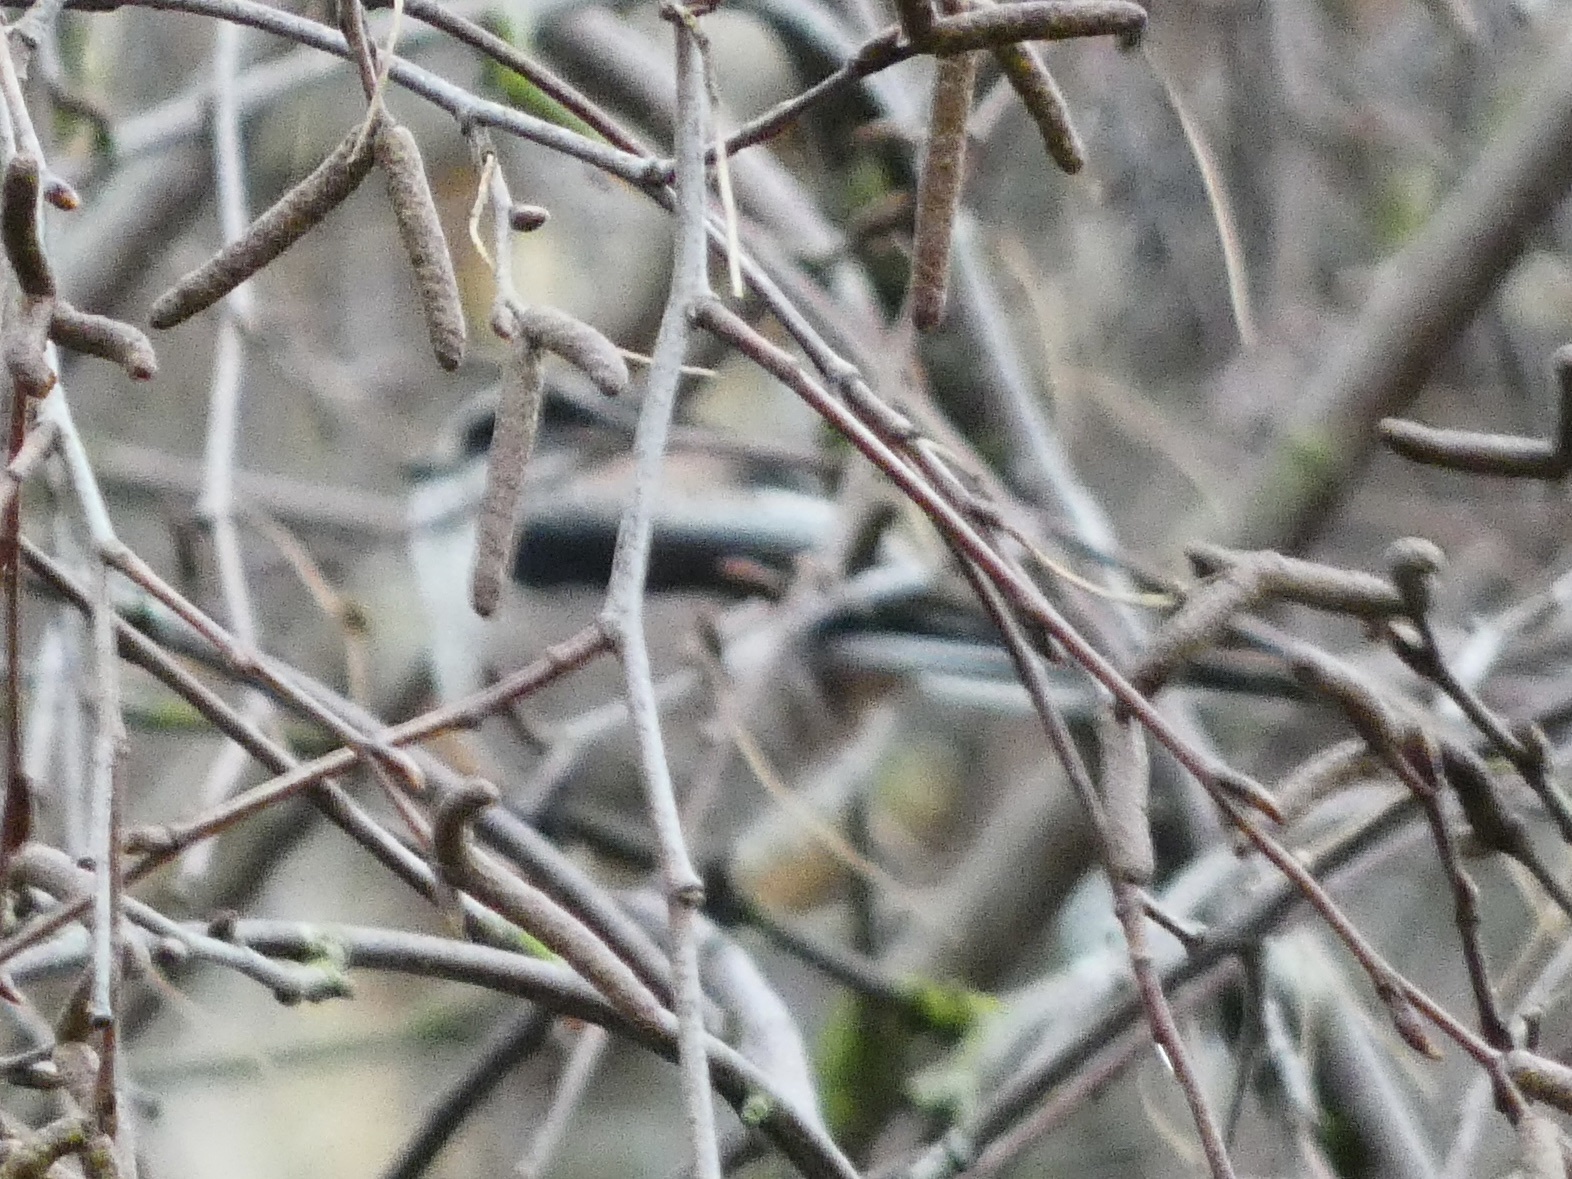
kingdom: Animalia
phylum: Chordata
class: Aves
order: Passeriformes
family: Aegithalidae
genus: Aegithalos
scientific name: Aegithalos caudatus
